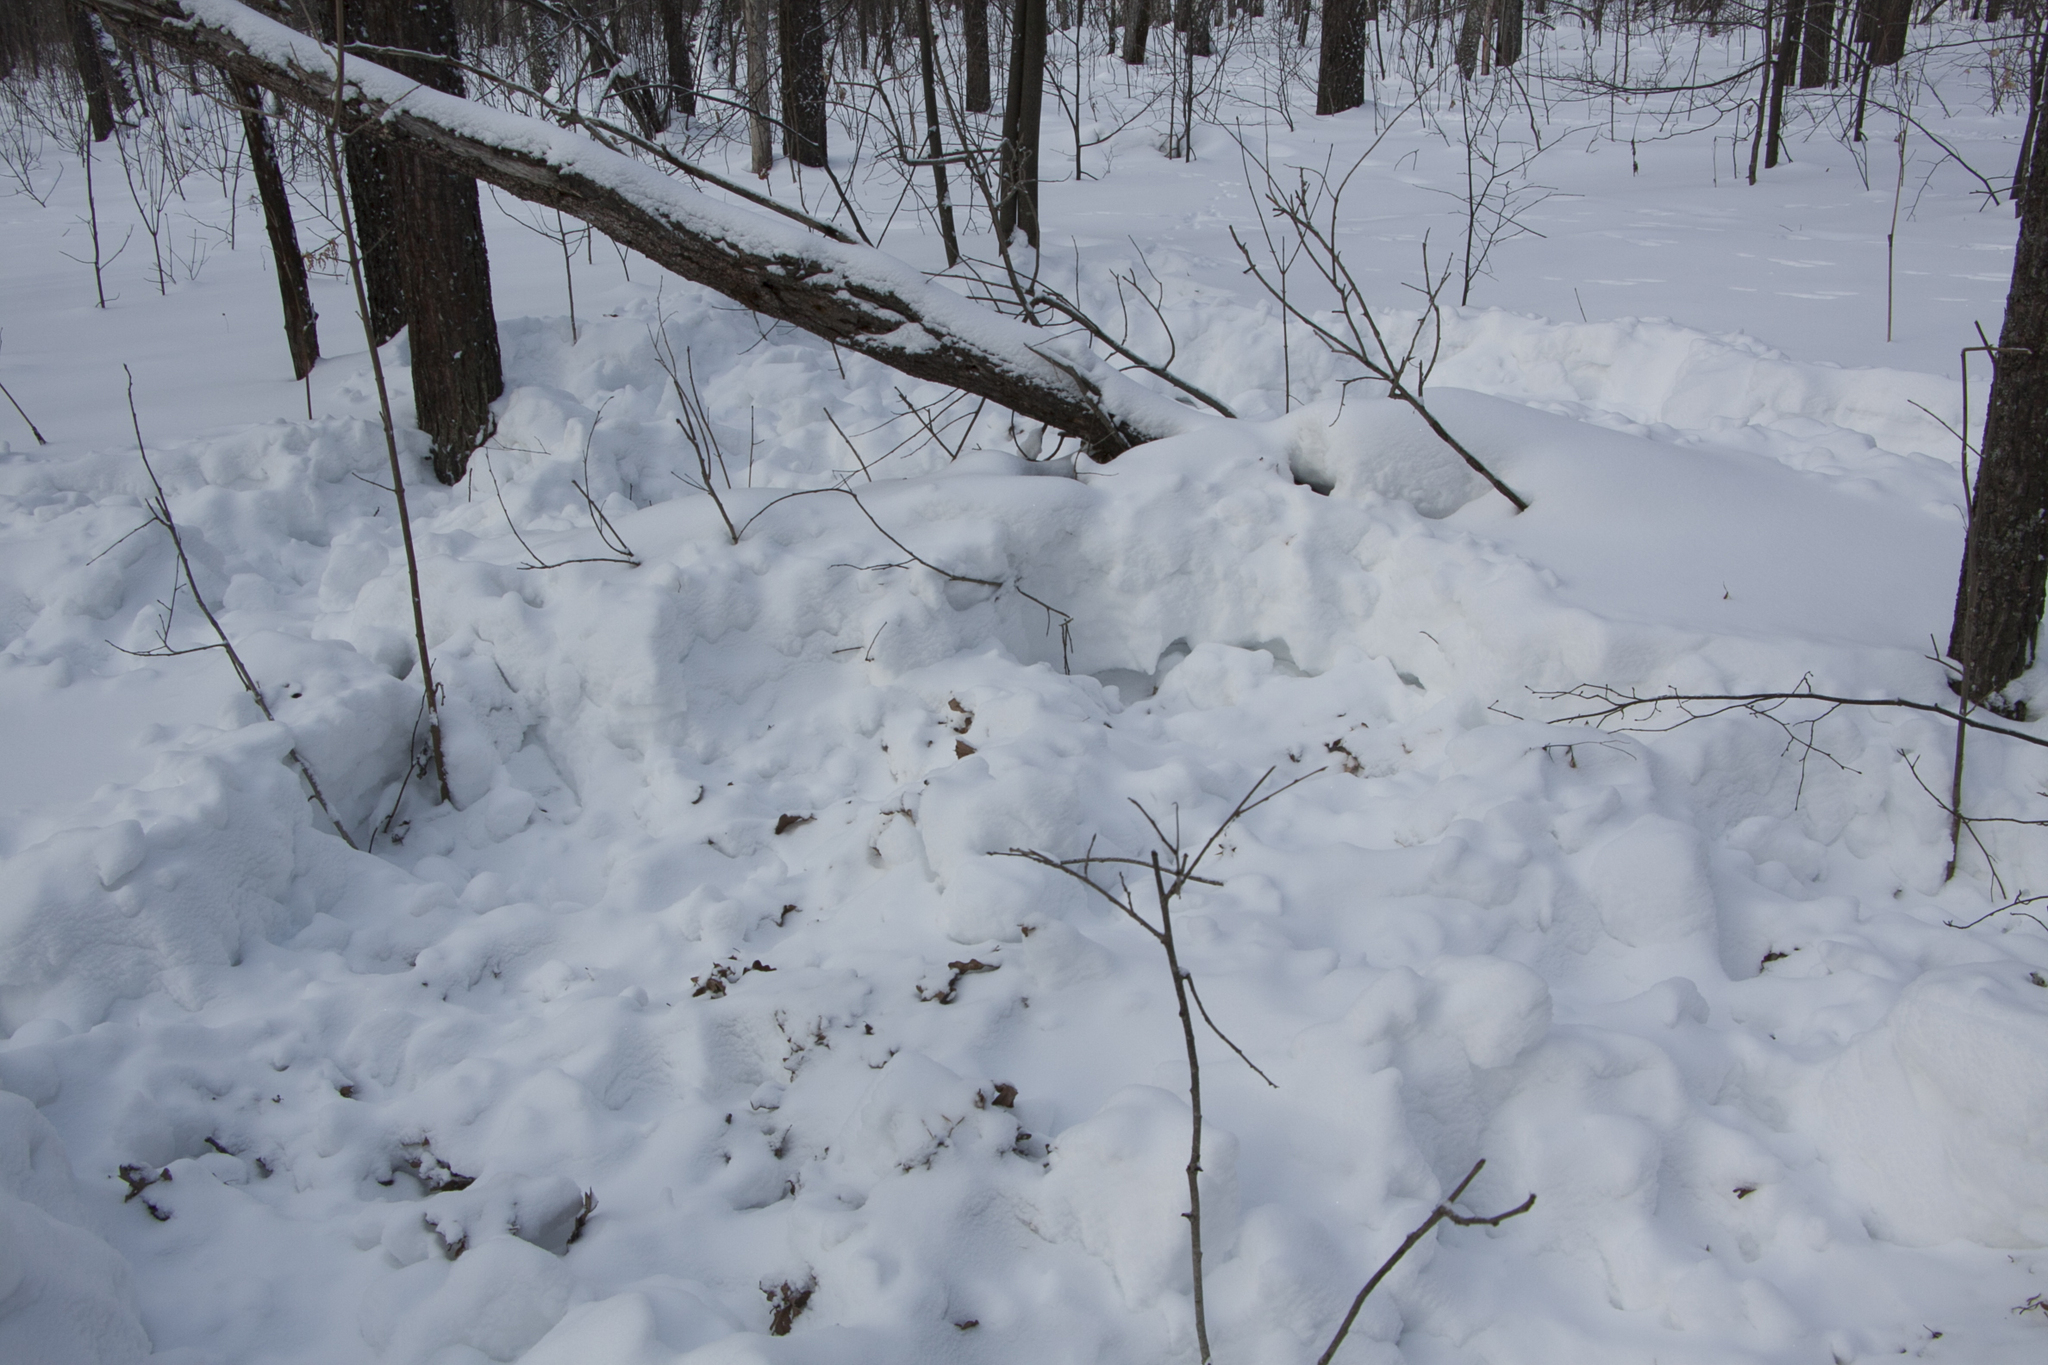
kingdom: Animalia
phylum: Chordata
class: Mammalia
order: Artiodactyla
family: Suidae
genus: Sus
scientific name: Sus scrofa
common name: Wild boar
